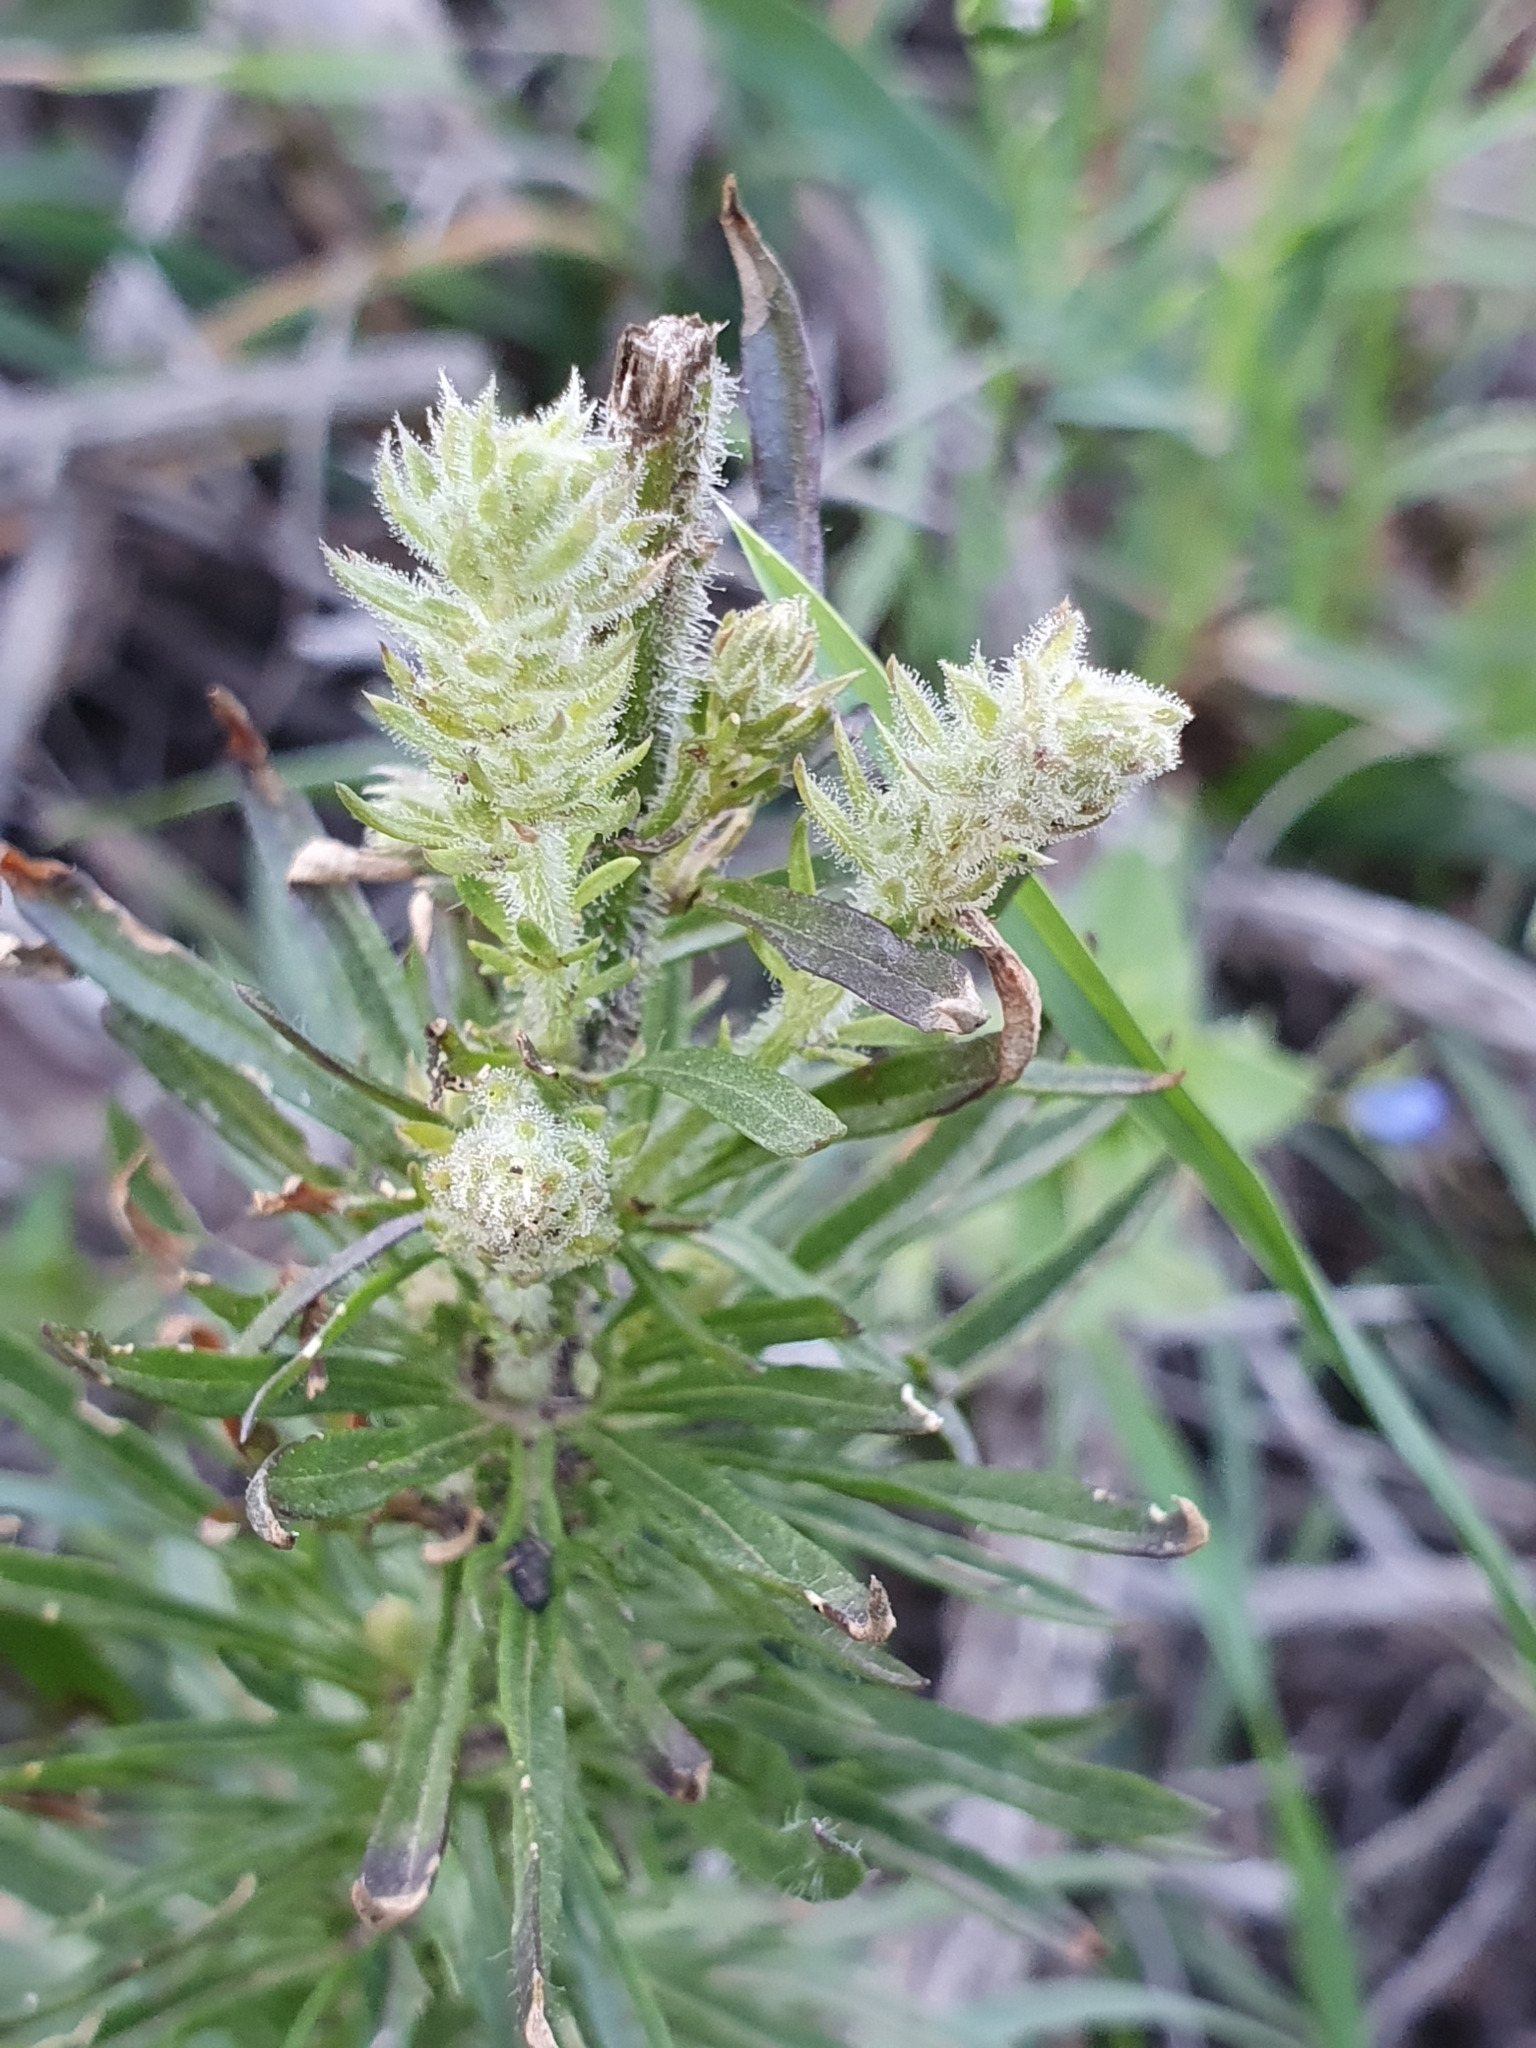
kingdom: Plantae
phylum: Tracheophyta
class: Magnoliopsida
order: Lamiales
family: Plantaginaceae
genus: Anarrhinum
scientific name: Anarrhinum pedatum
